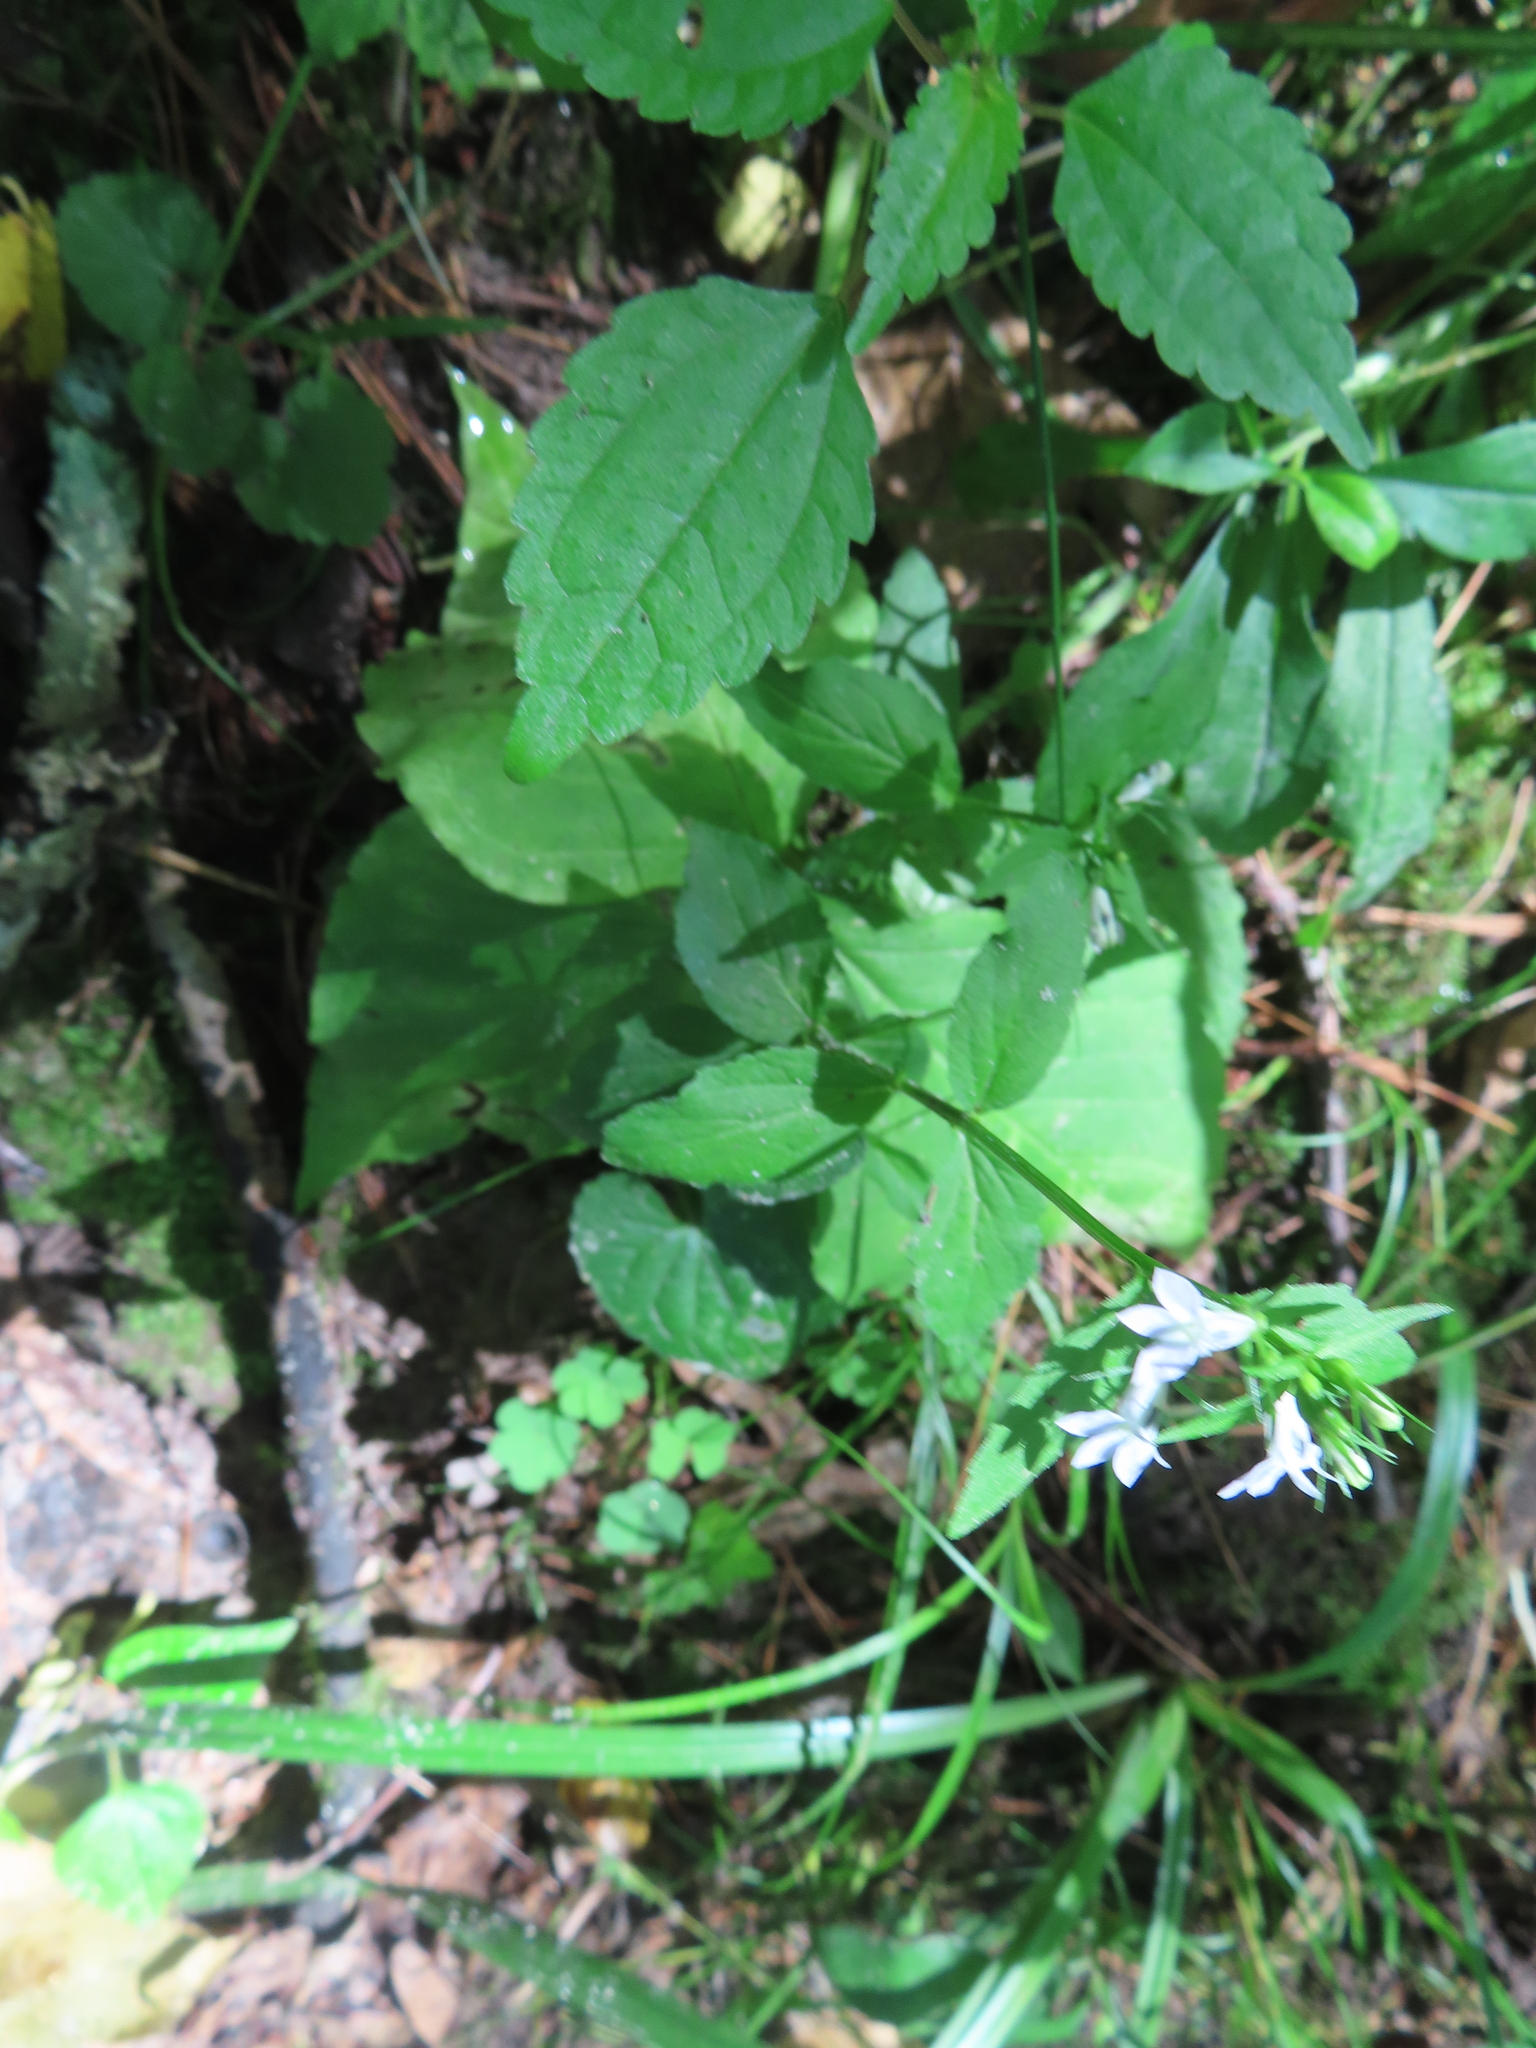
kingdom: Plantae
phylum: Tracheophyta
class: Magnoliopsida
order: Asterales
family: Campanulaceae
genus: Lobelia
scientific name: Lobelia inflata
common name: Indian tobacco
